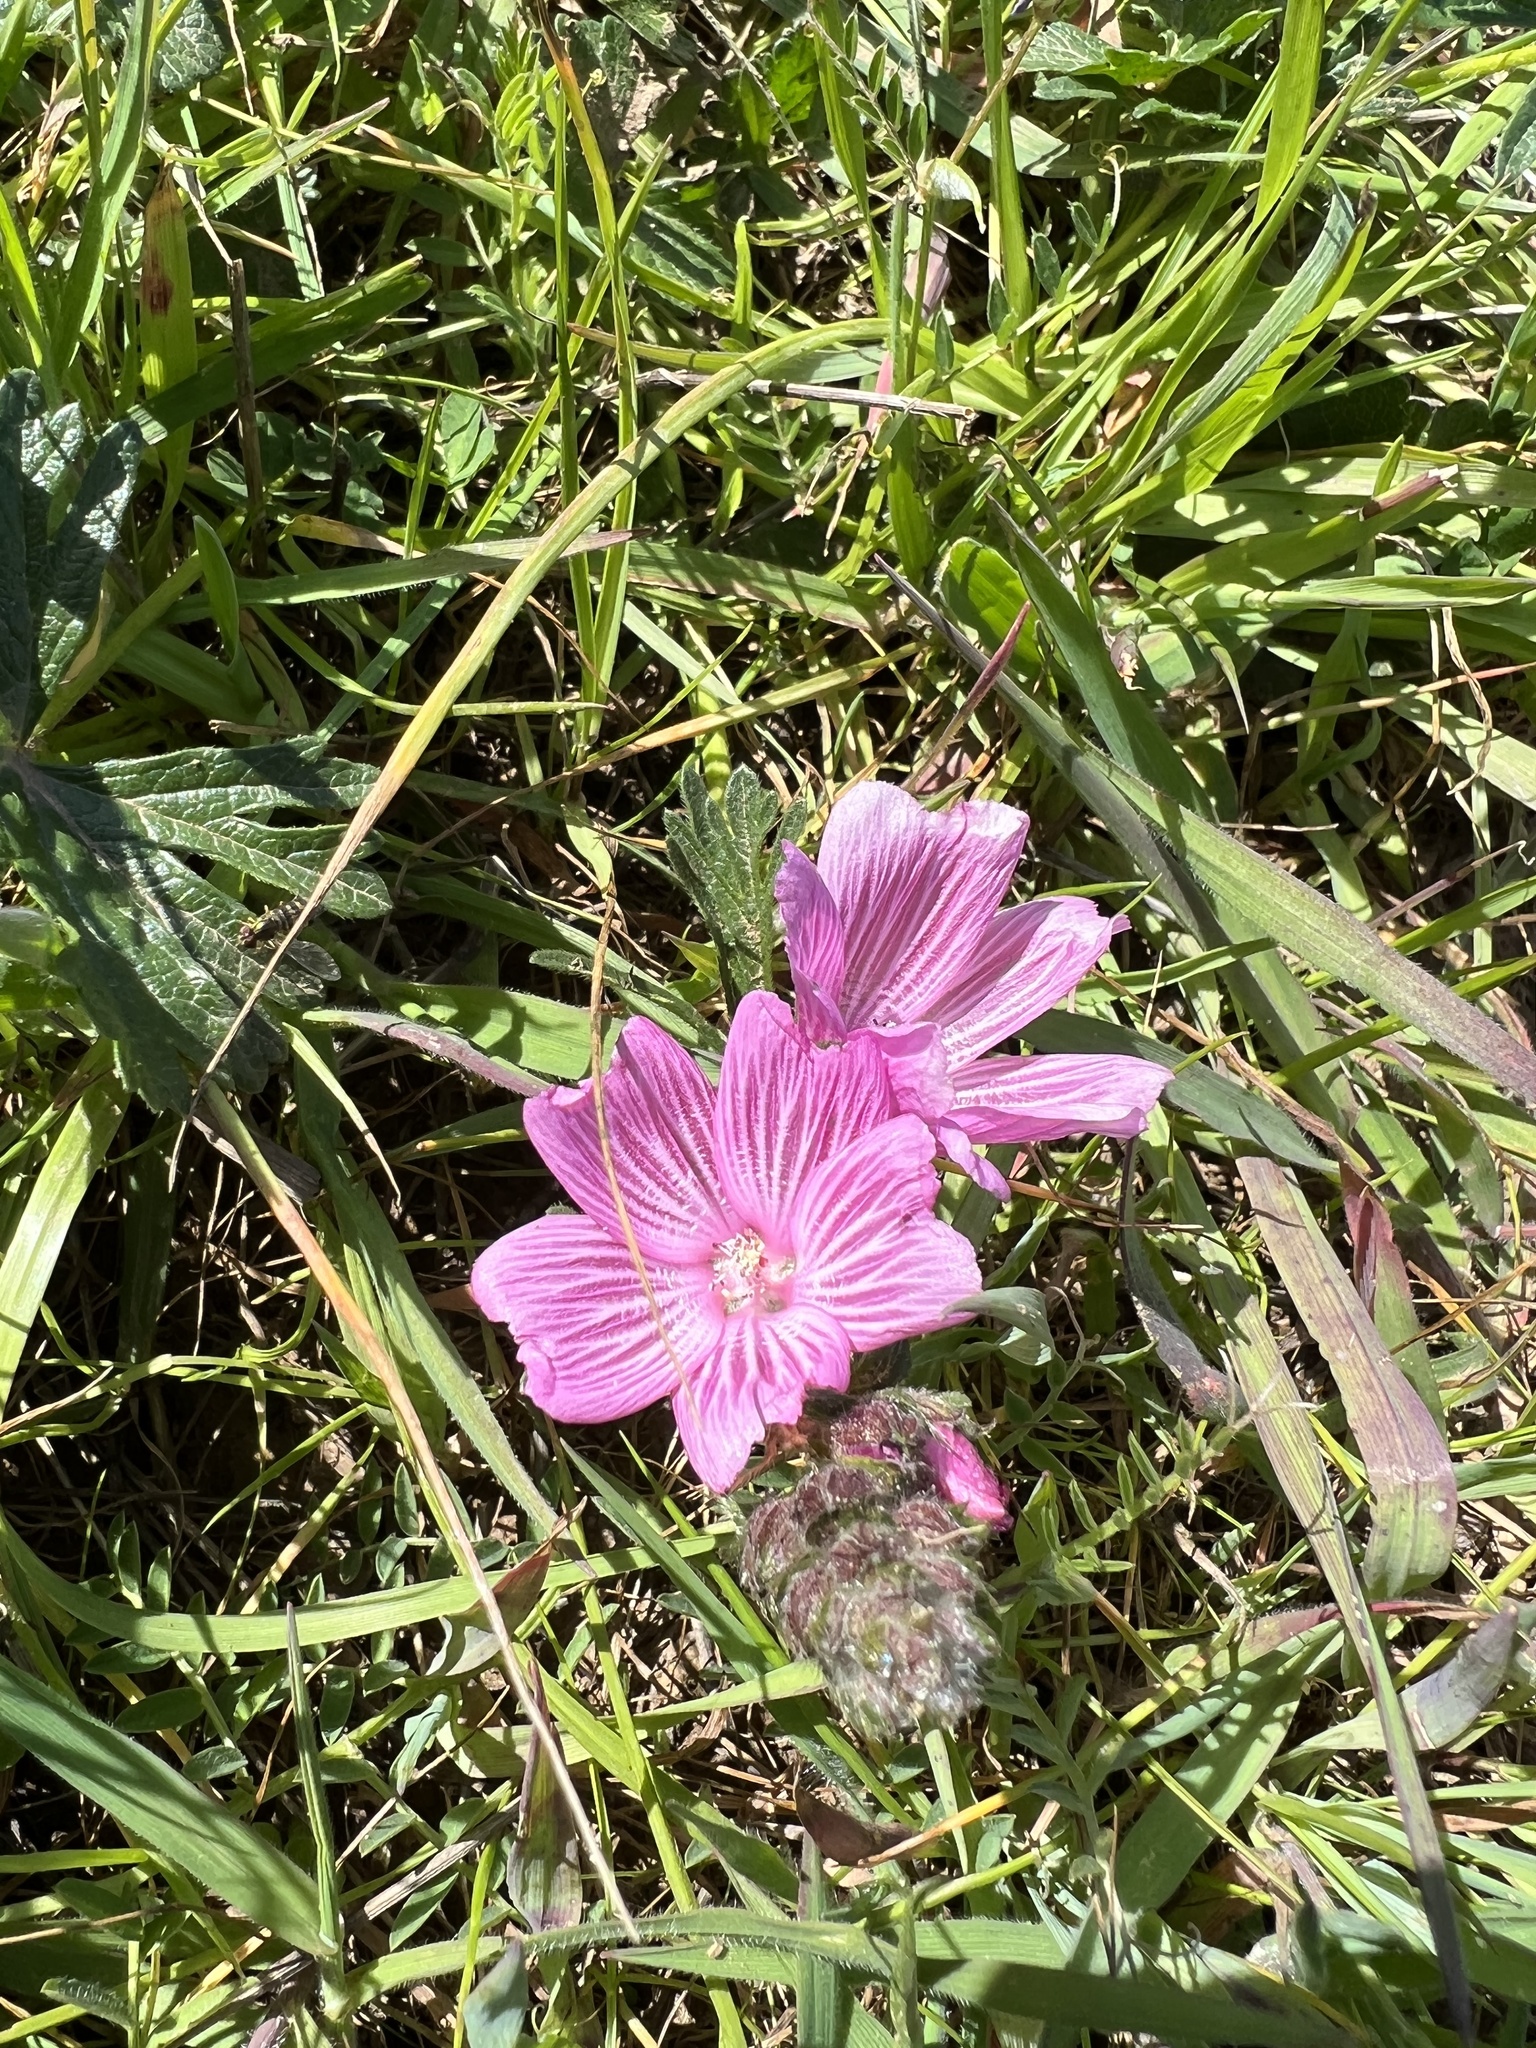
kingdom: Plantae
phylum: Tracheophyta
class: Magnoliopsida
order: Malvales
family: Malvaceae
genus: Sidalcea
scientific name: Sidalcea malviflora
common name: Greek mallow
